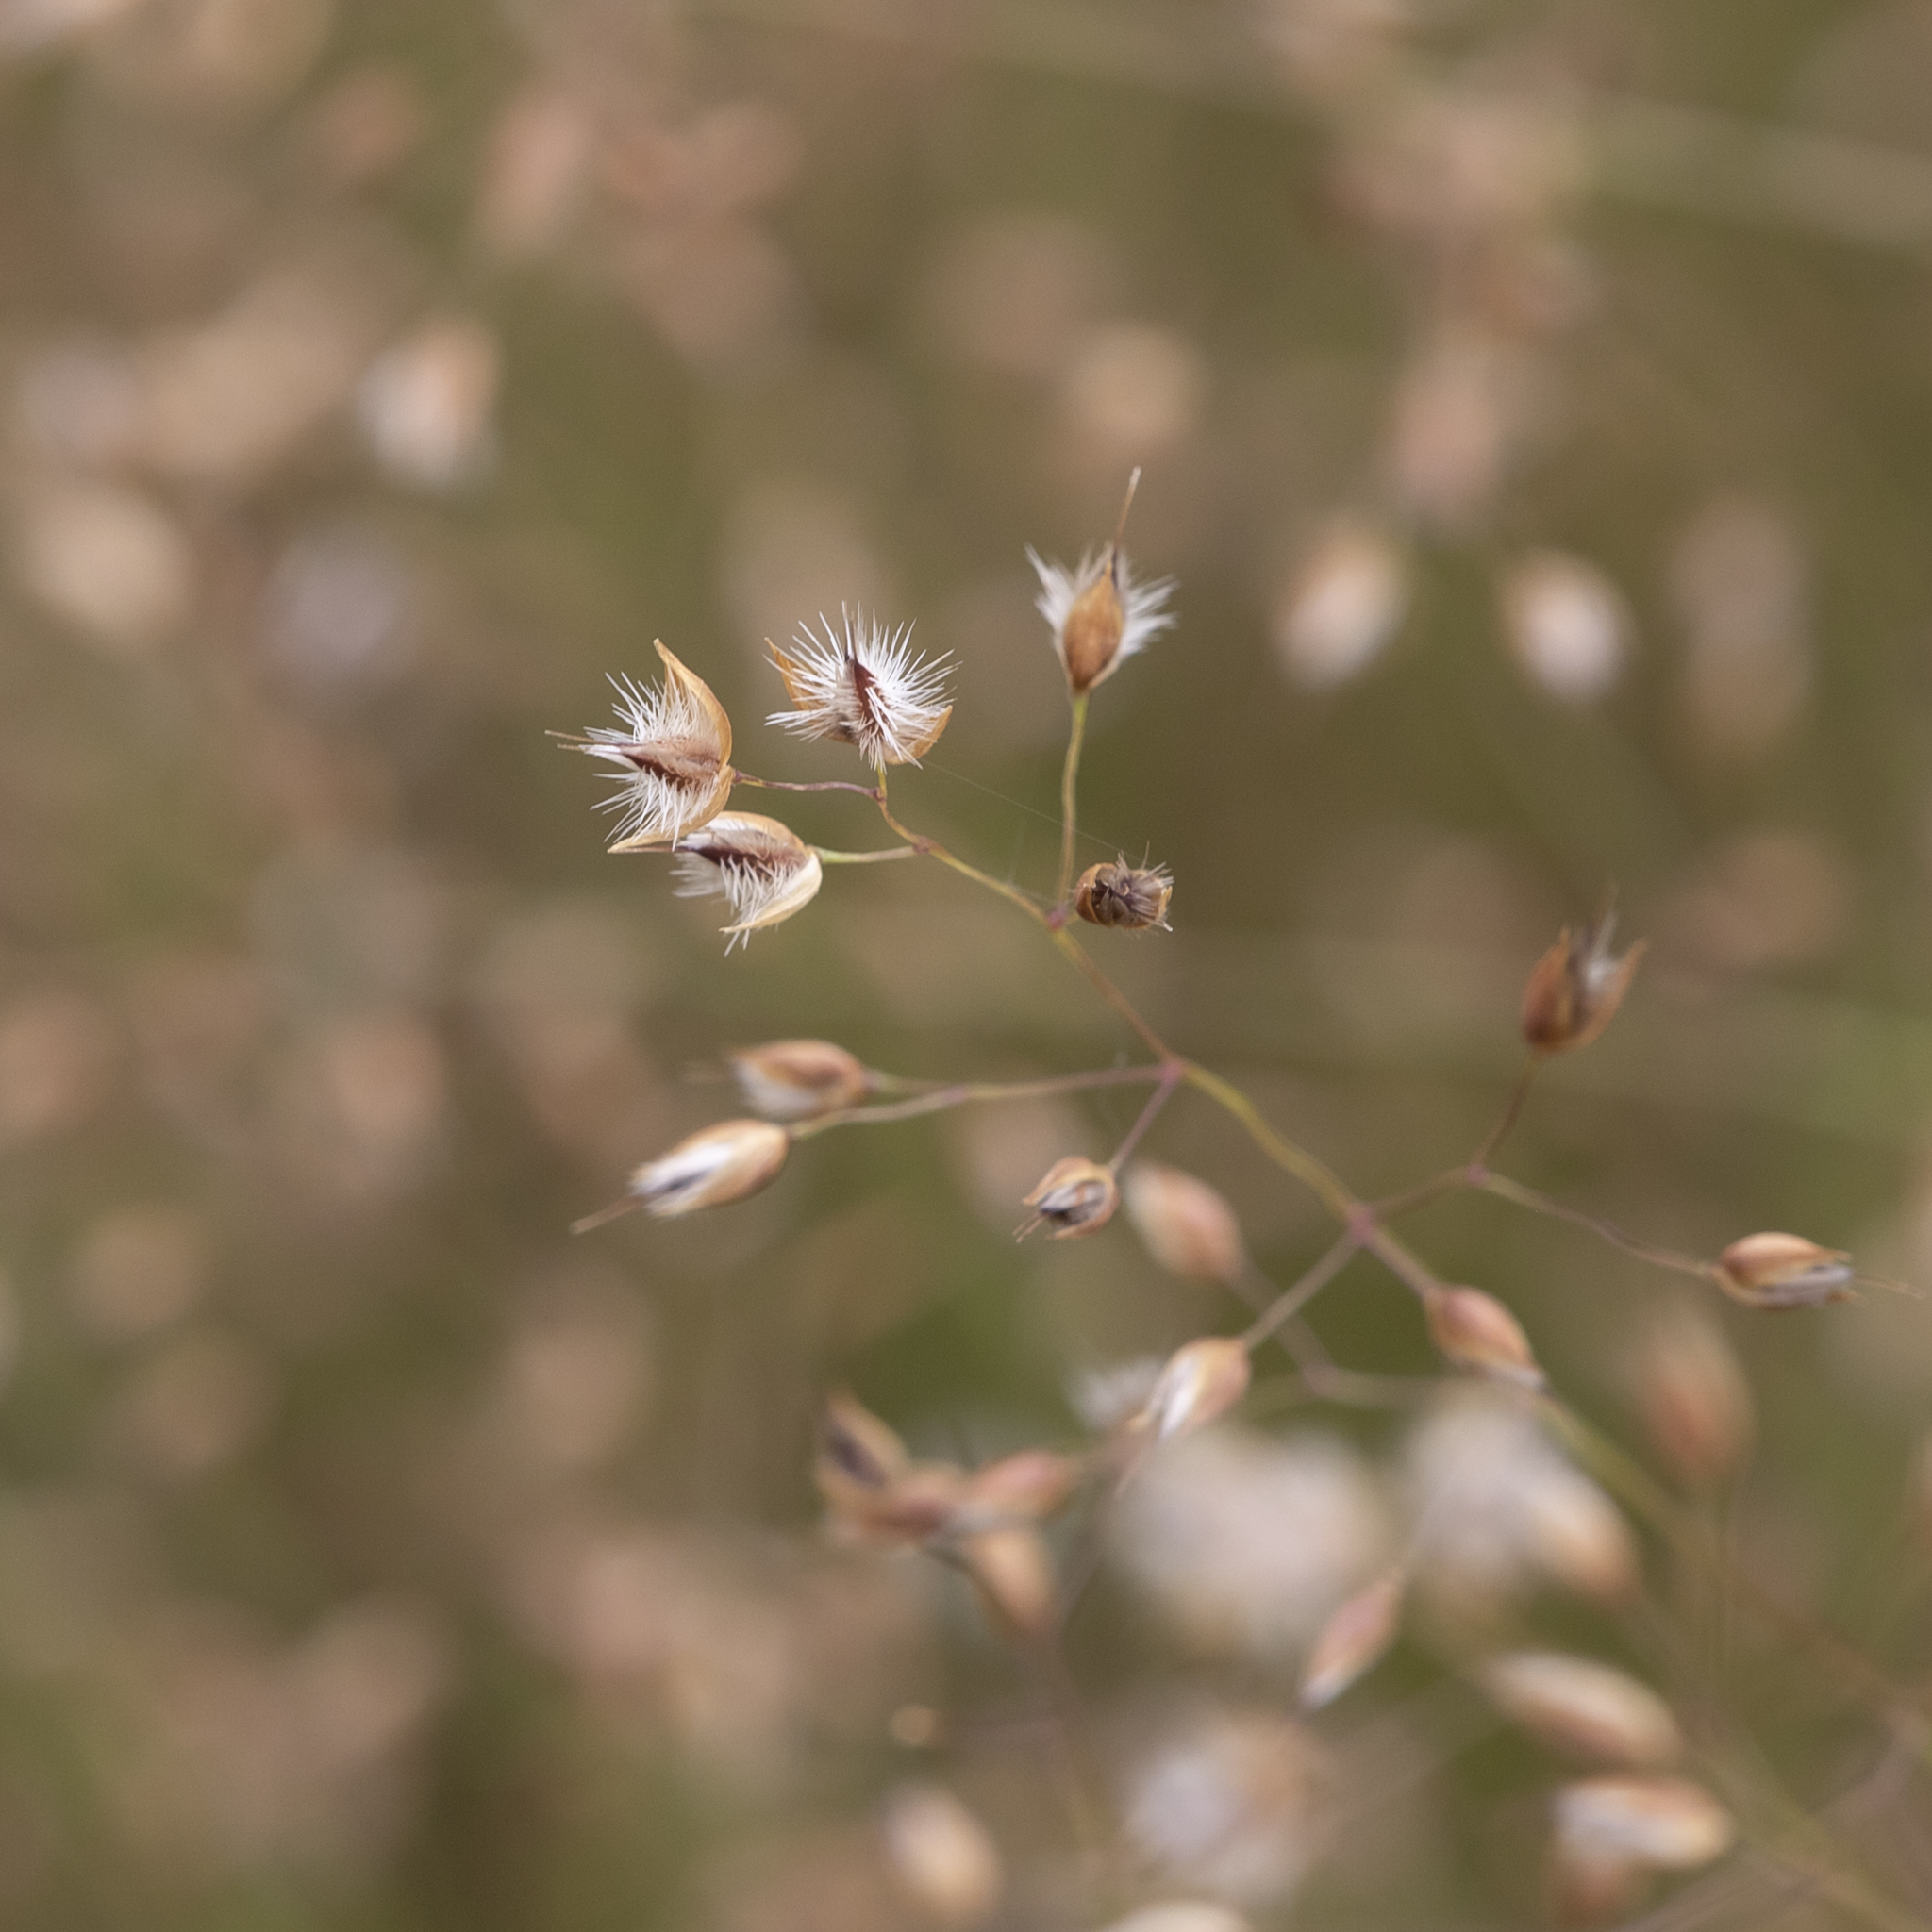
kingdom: Plantae
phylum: Tracheophyta
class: Liliopsida
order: Poales
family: Poaceae
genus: Eriachne
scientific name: Eriachne ciliata
